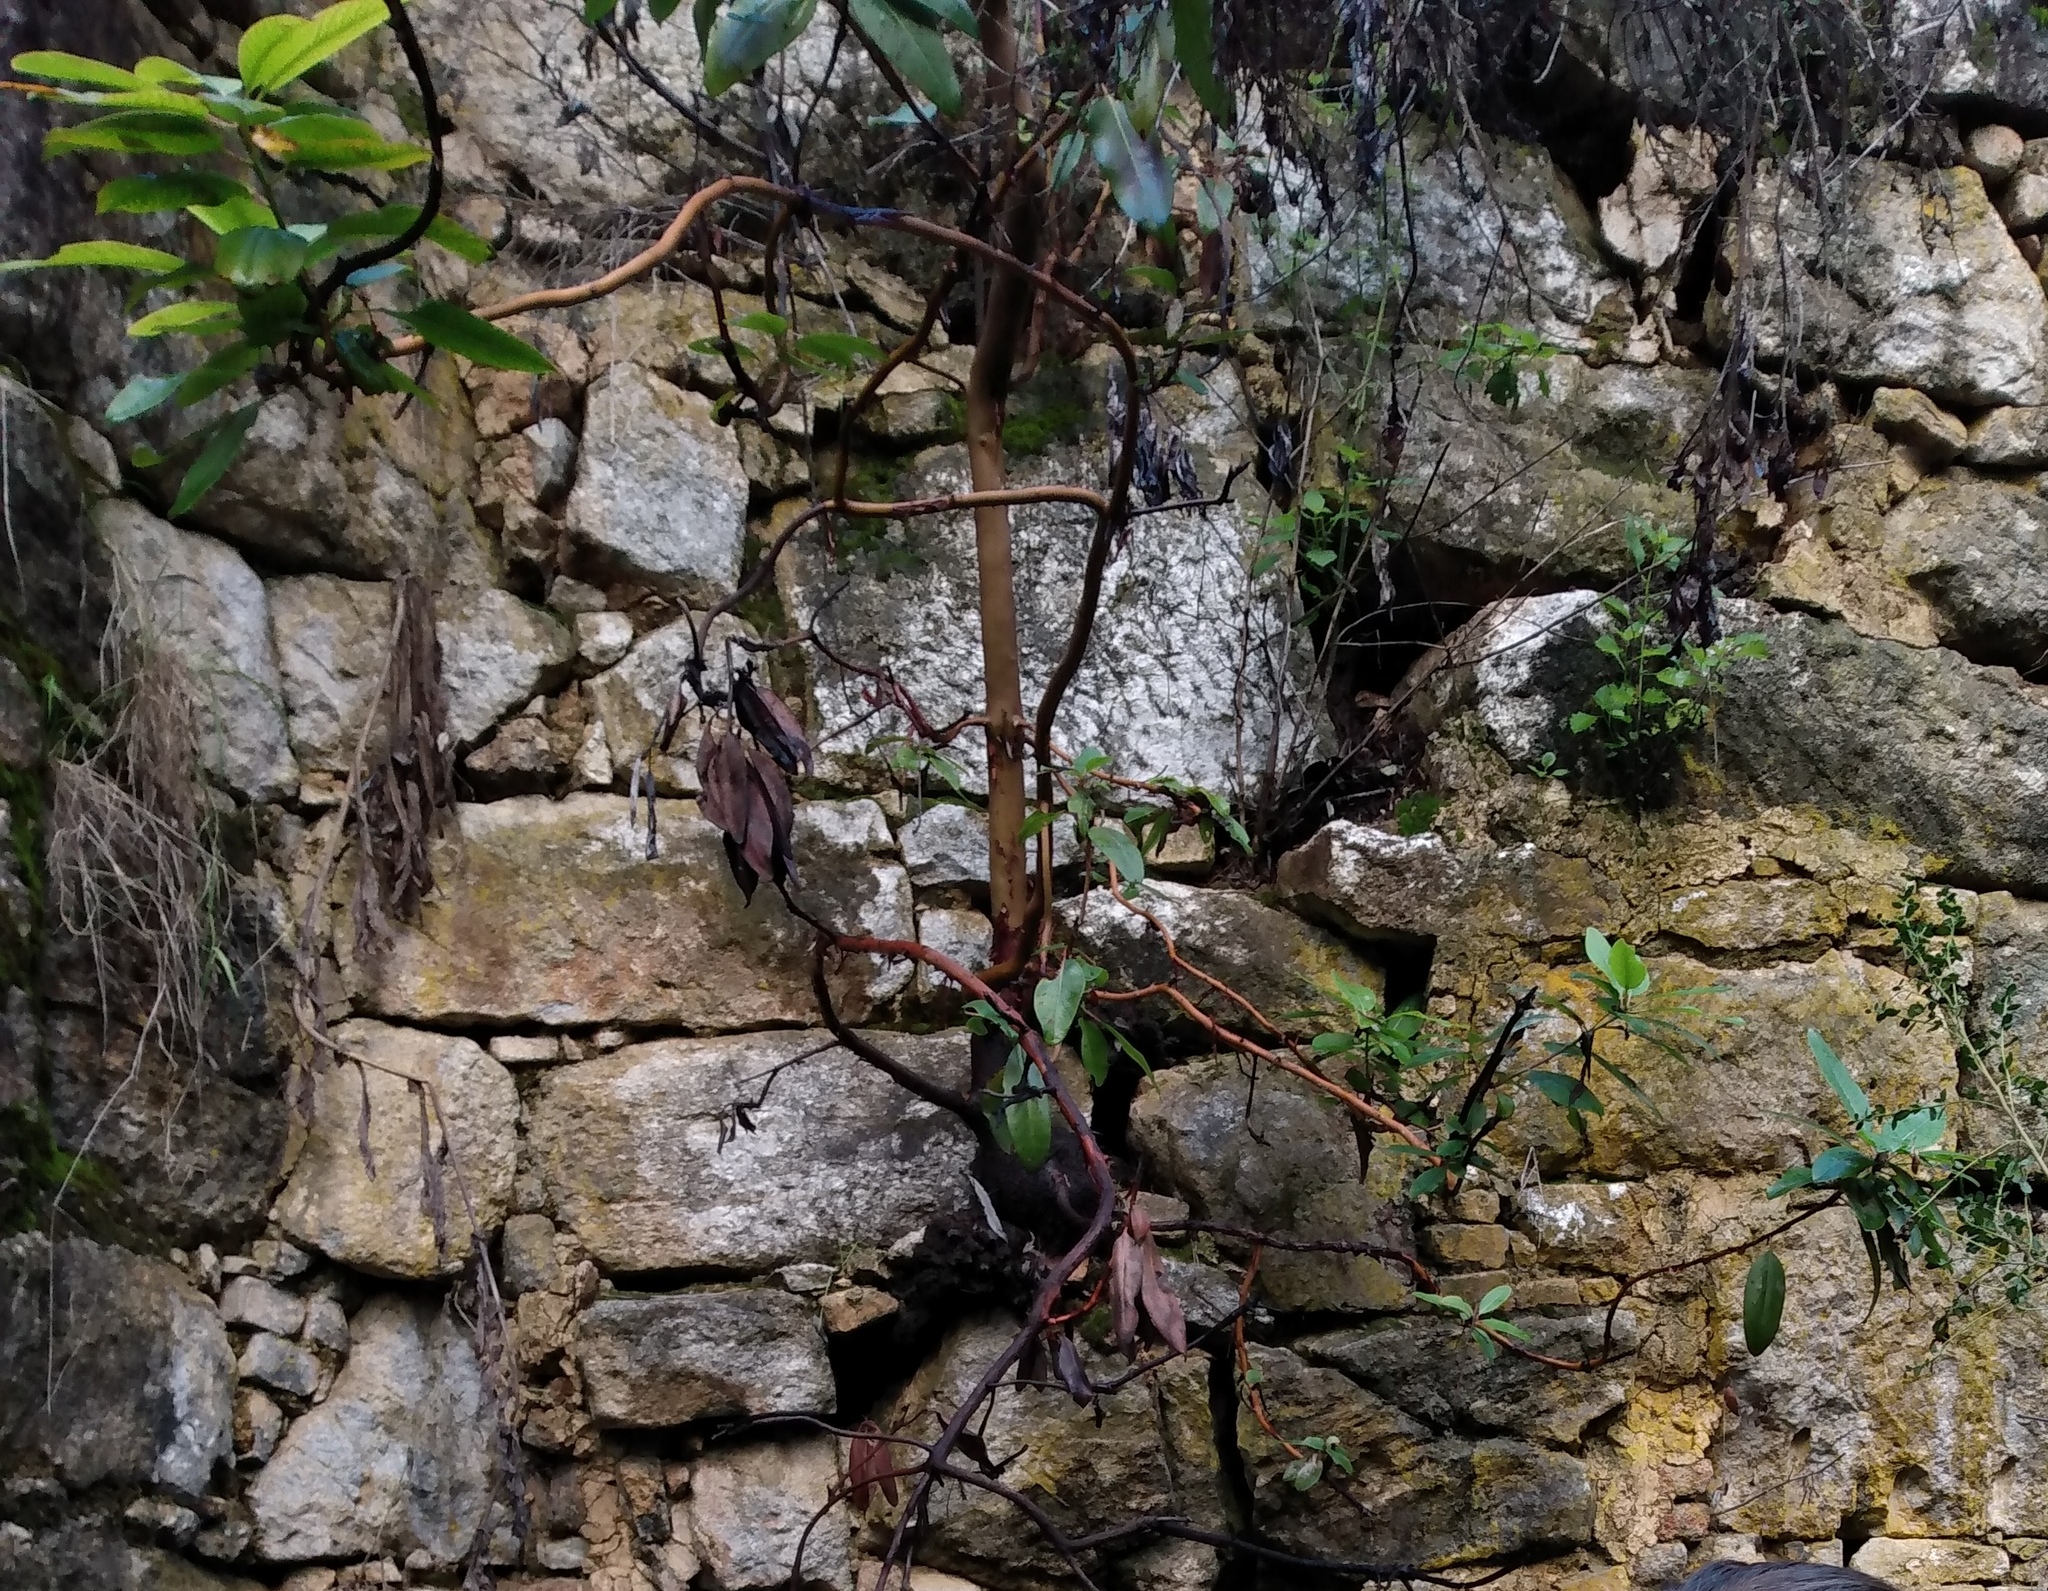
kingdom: Plantae
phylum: Tracheophyta
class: Magnoliopsida
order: Ericales
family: Ericaceae
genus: Arbutus
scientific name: Arbutus menziesii
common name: Pacific madrone
